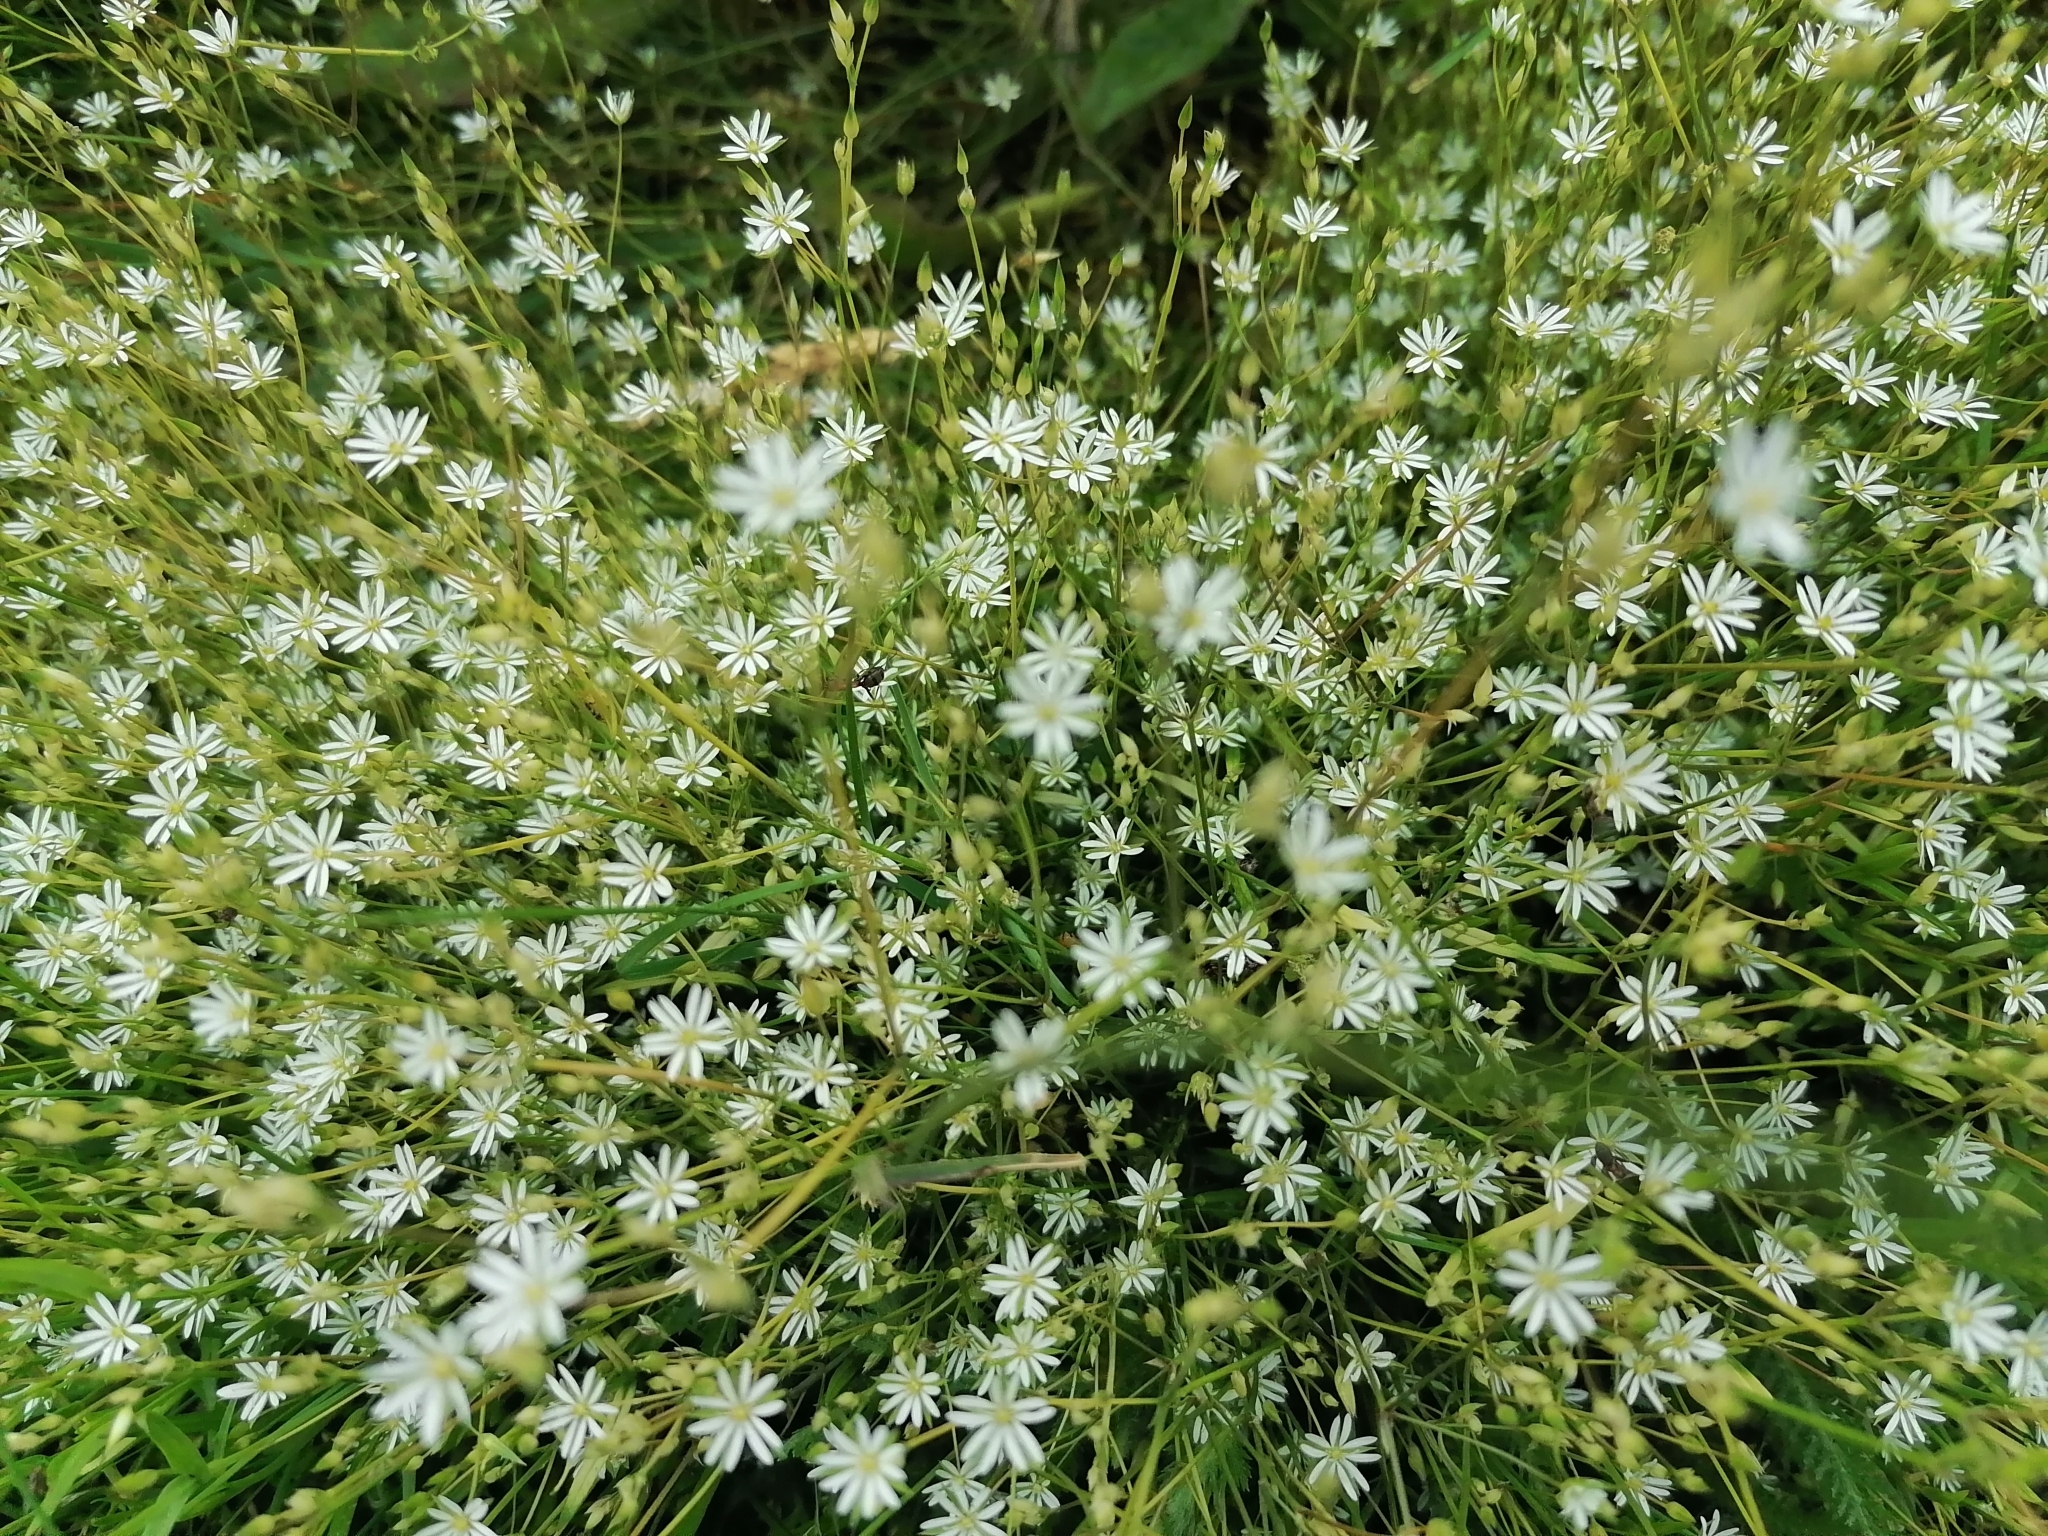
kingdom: Plantae
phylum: Tracheophyta
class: Magnoliopsida
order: Caryophyllales
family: Caryophyllaceae
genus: Stellaria
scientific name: Stellaria graminea
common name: Grass-like starwort
